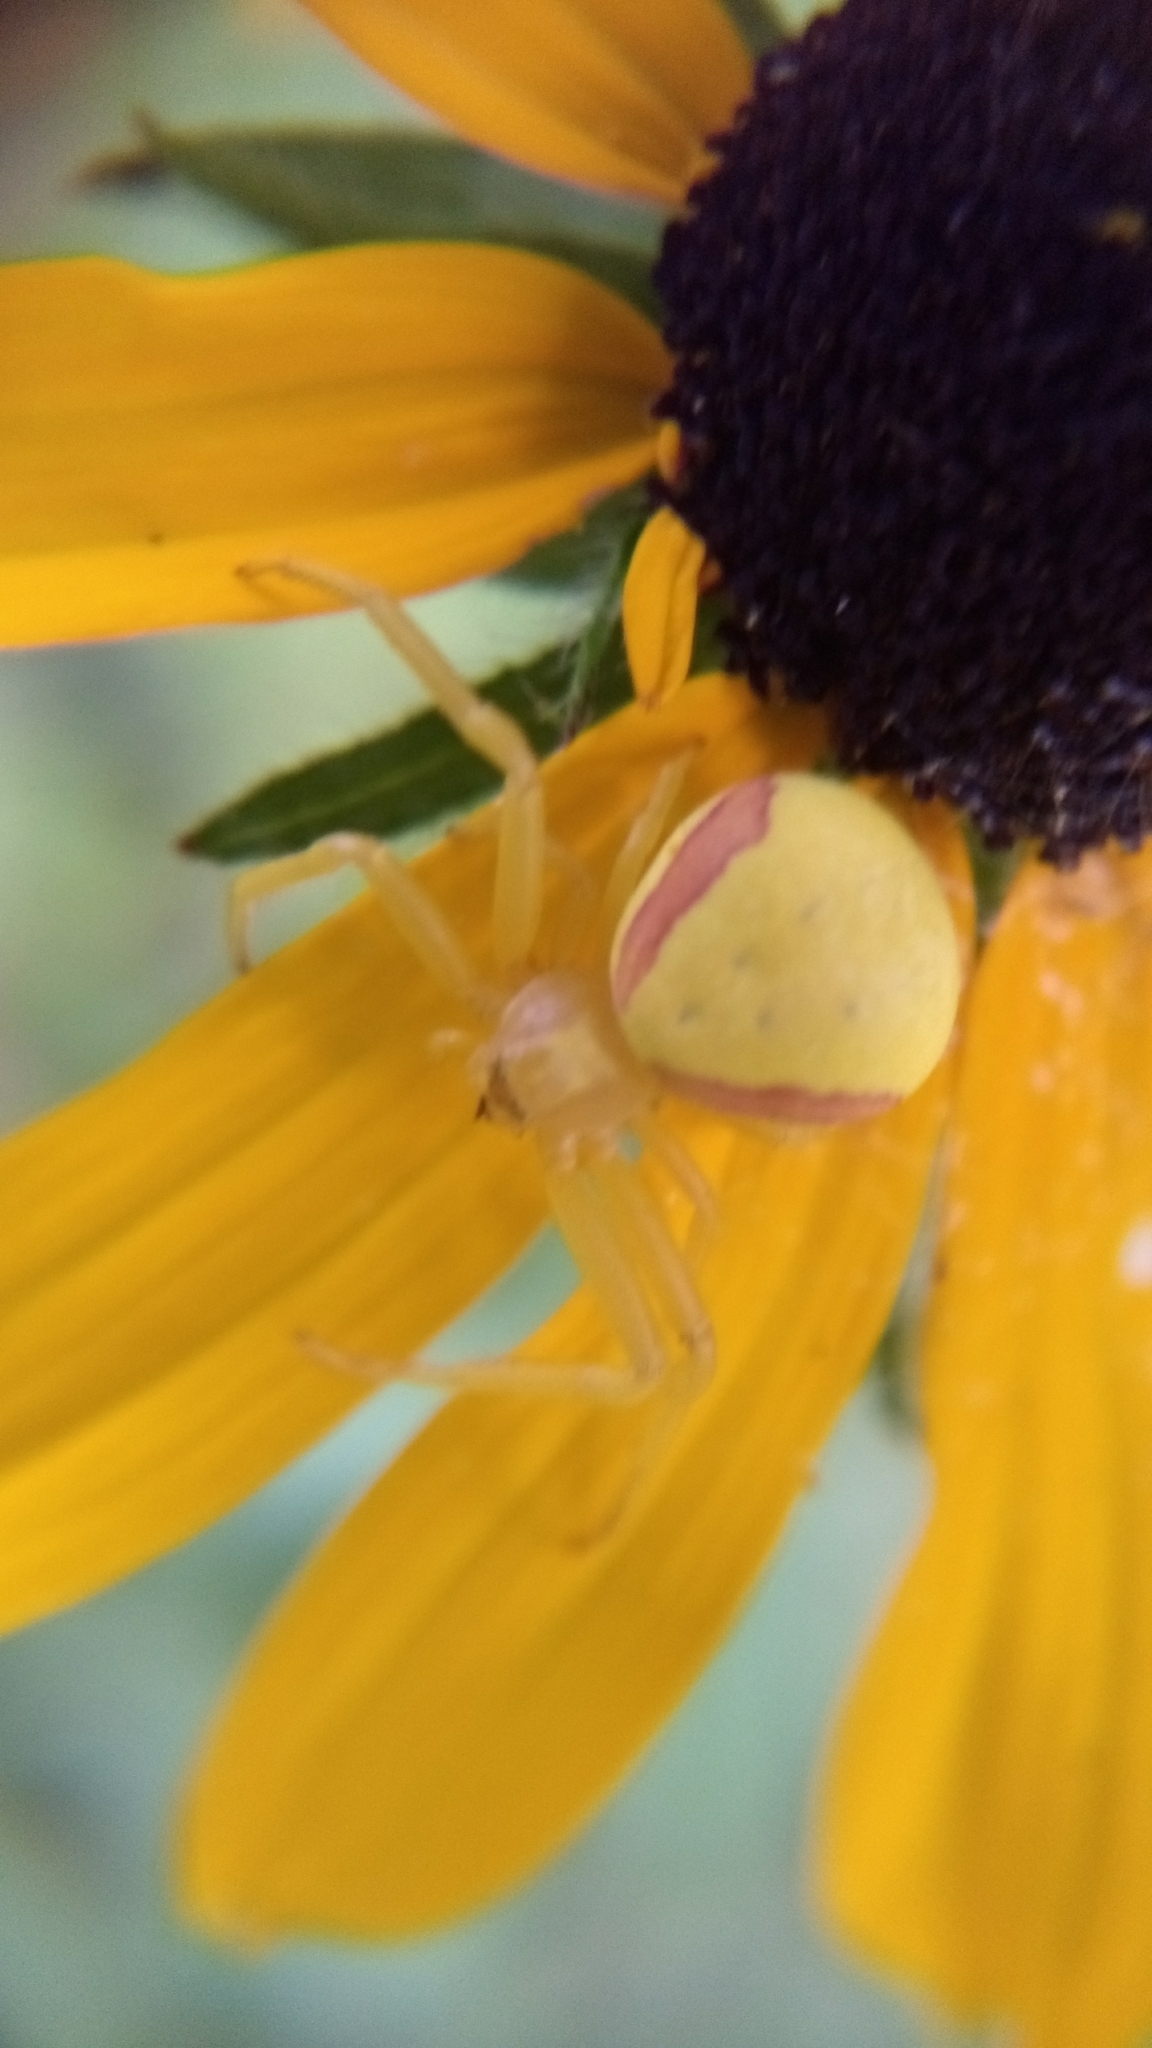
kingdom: Animalia
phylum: Arthropoda
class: Arachnida
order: Araneae
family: Thomisidae
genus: Misumena
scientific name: Misumena vatia
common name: Goldenrod crab spider
